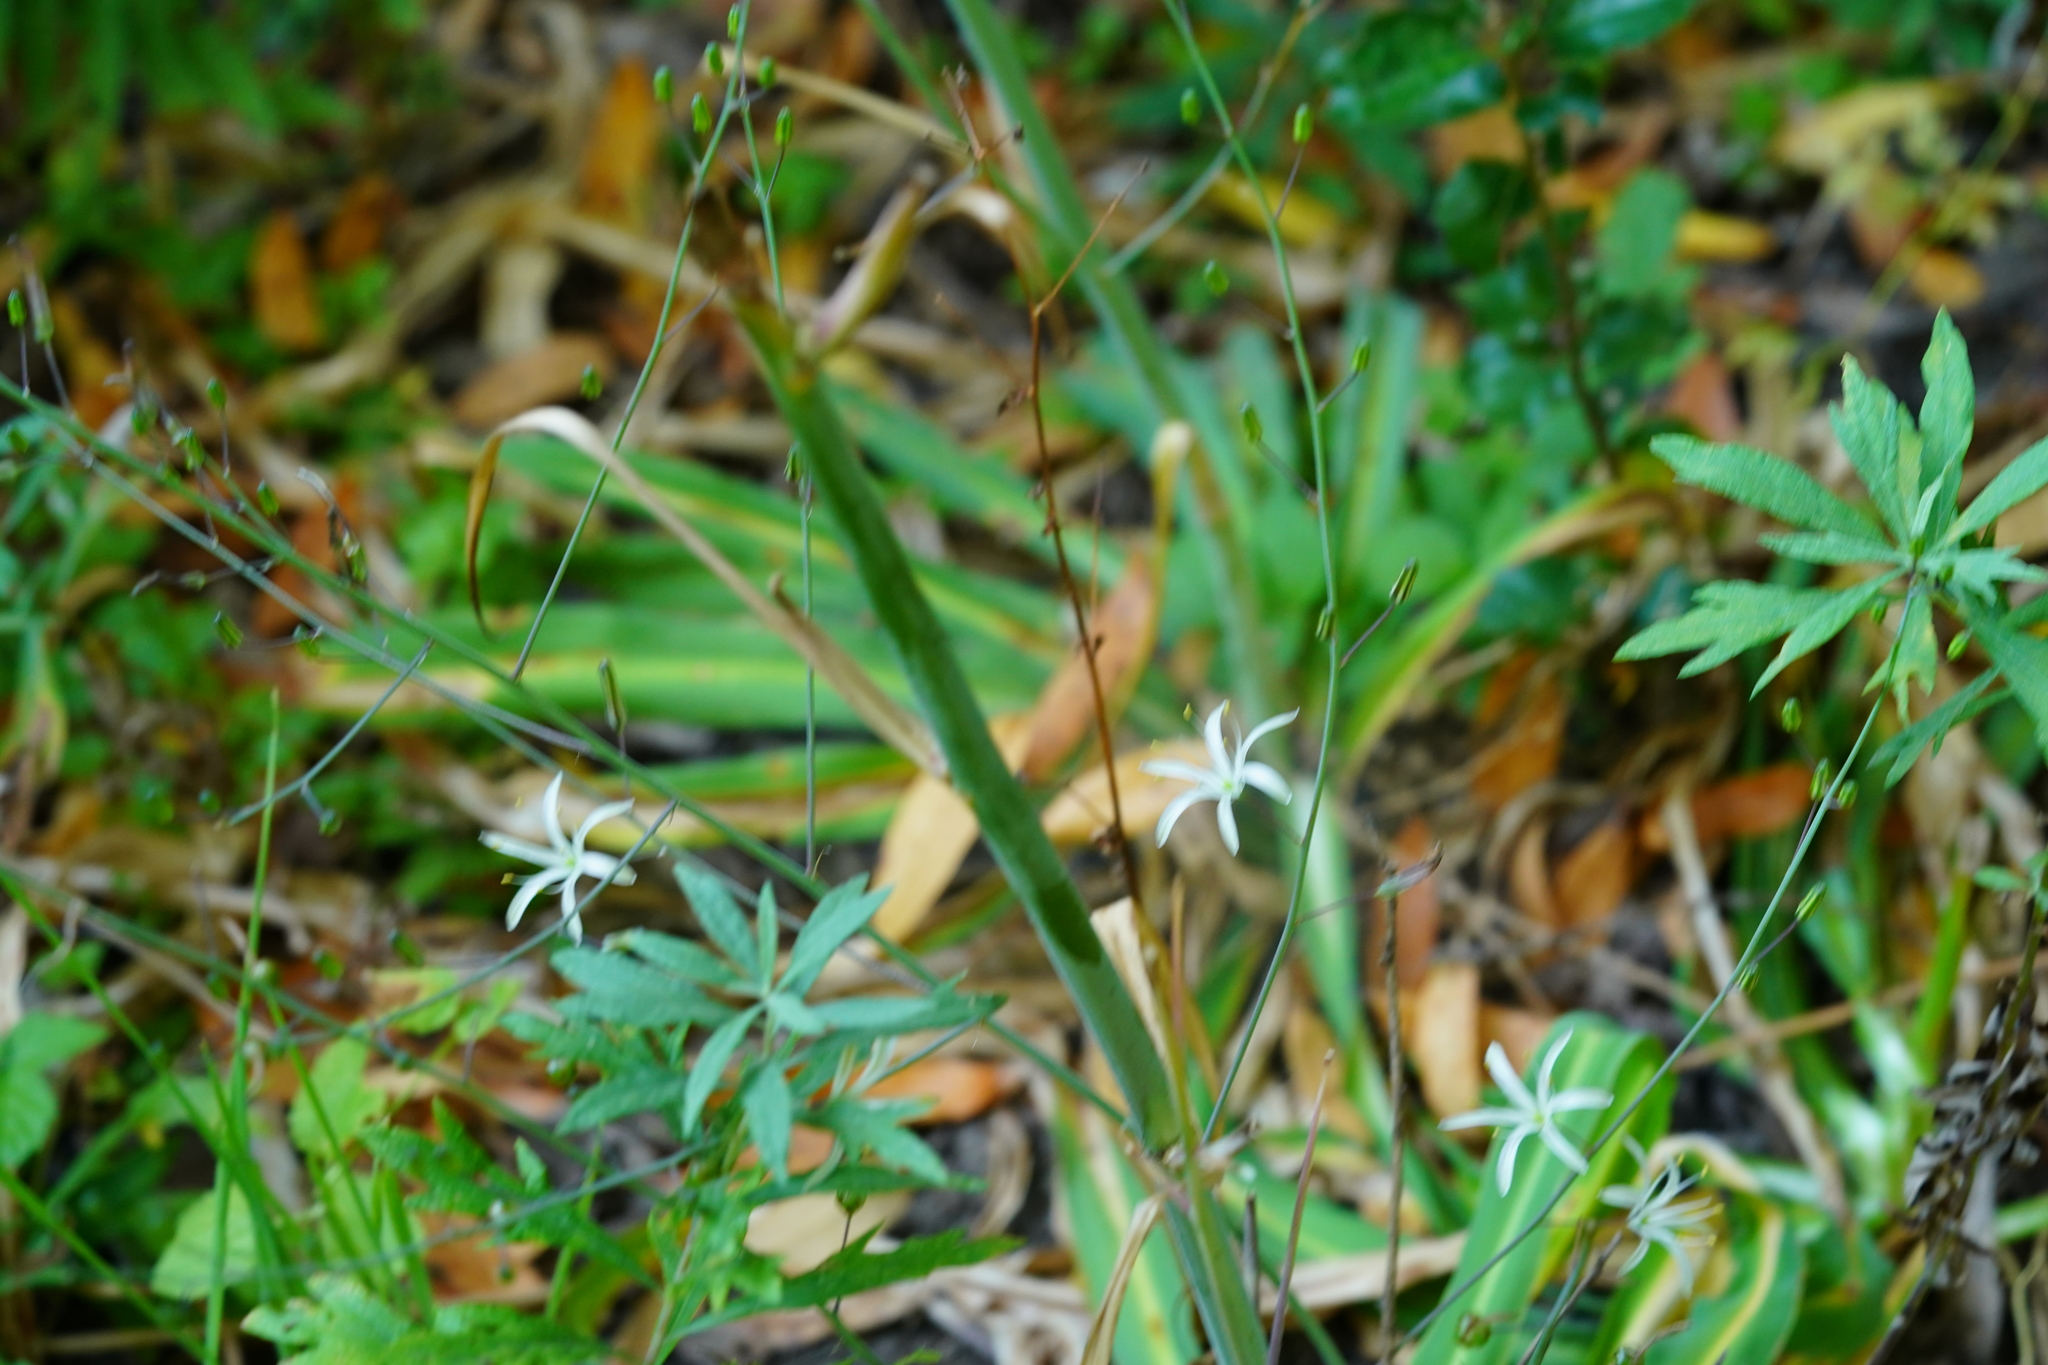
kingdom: Plantae
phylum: Tracheophyta
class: Liliopsida
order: Asparagales
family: Asparagaceae
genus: Chlorogalum
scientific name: Chlorogalum pomeridianum
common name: Amole
